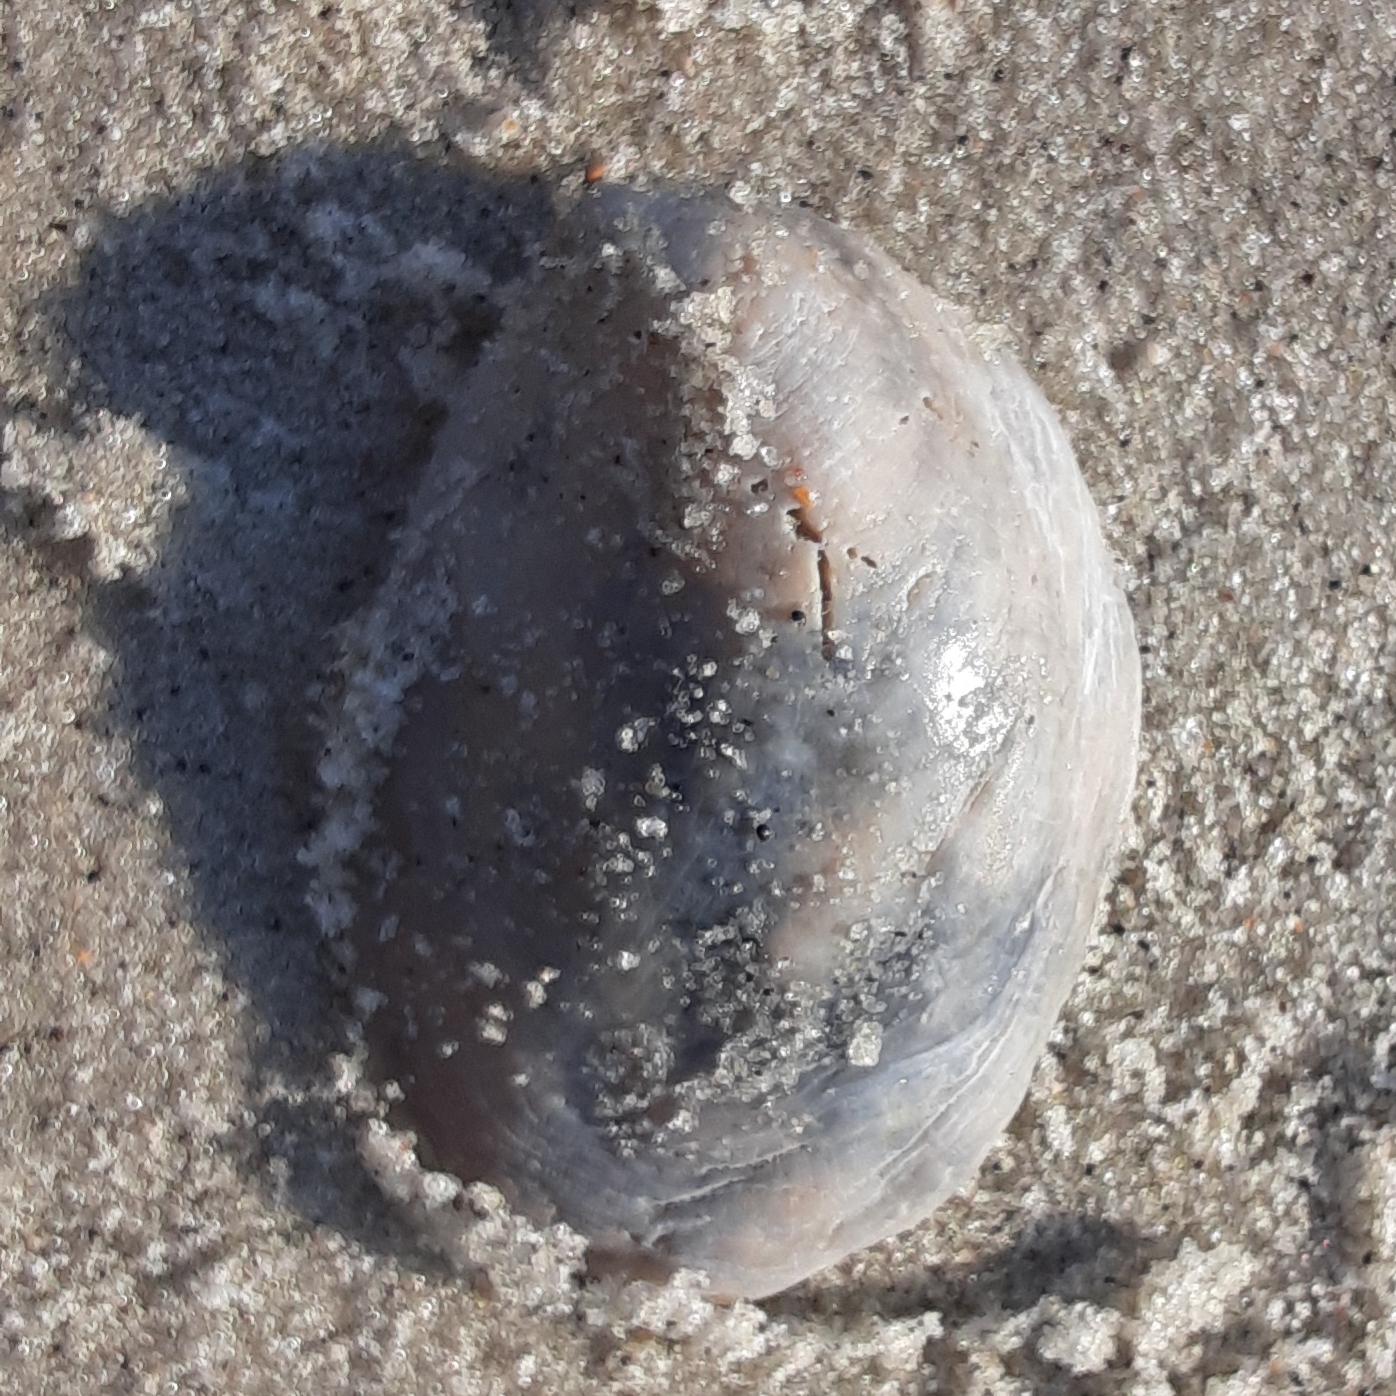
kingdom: Animalia
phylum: Mollusca
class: Gastropoda
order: Littorinimorpha
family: Calyptraeidae
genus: Crepidula
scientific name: Crepidula fornicata
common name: Slipper limpet
